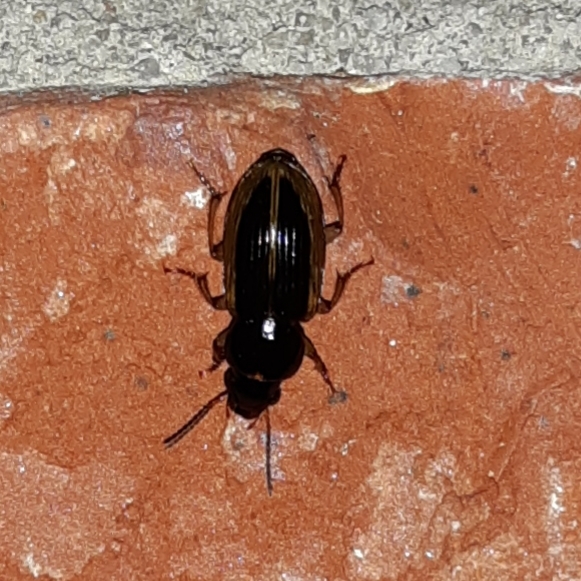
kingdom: Animalia
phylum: Arthropoda
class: Insecta
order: Coleoptera
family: Carabidae
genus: Stenolophus
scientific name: Stenolophus infuscatus
